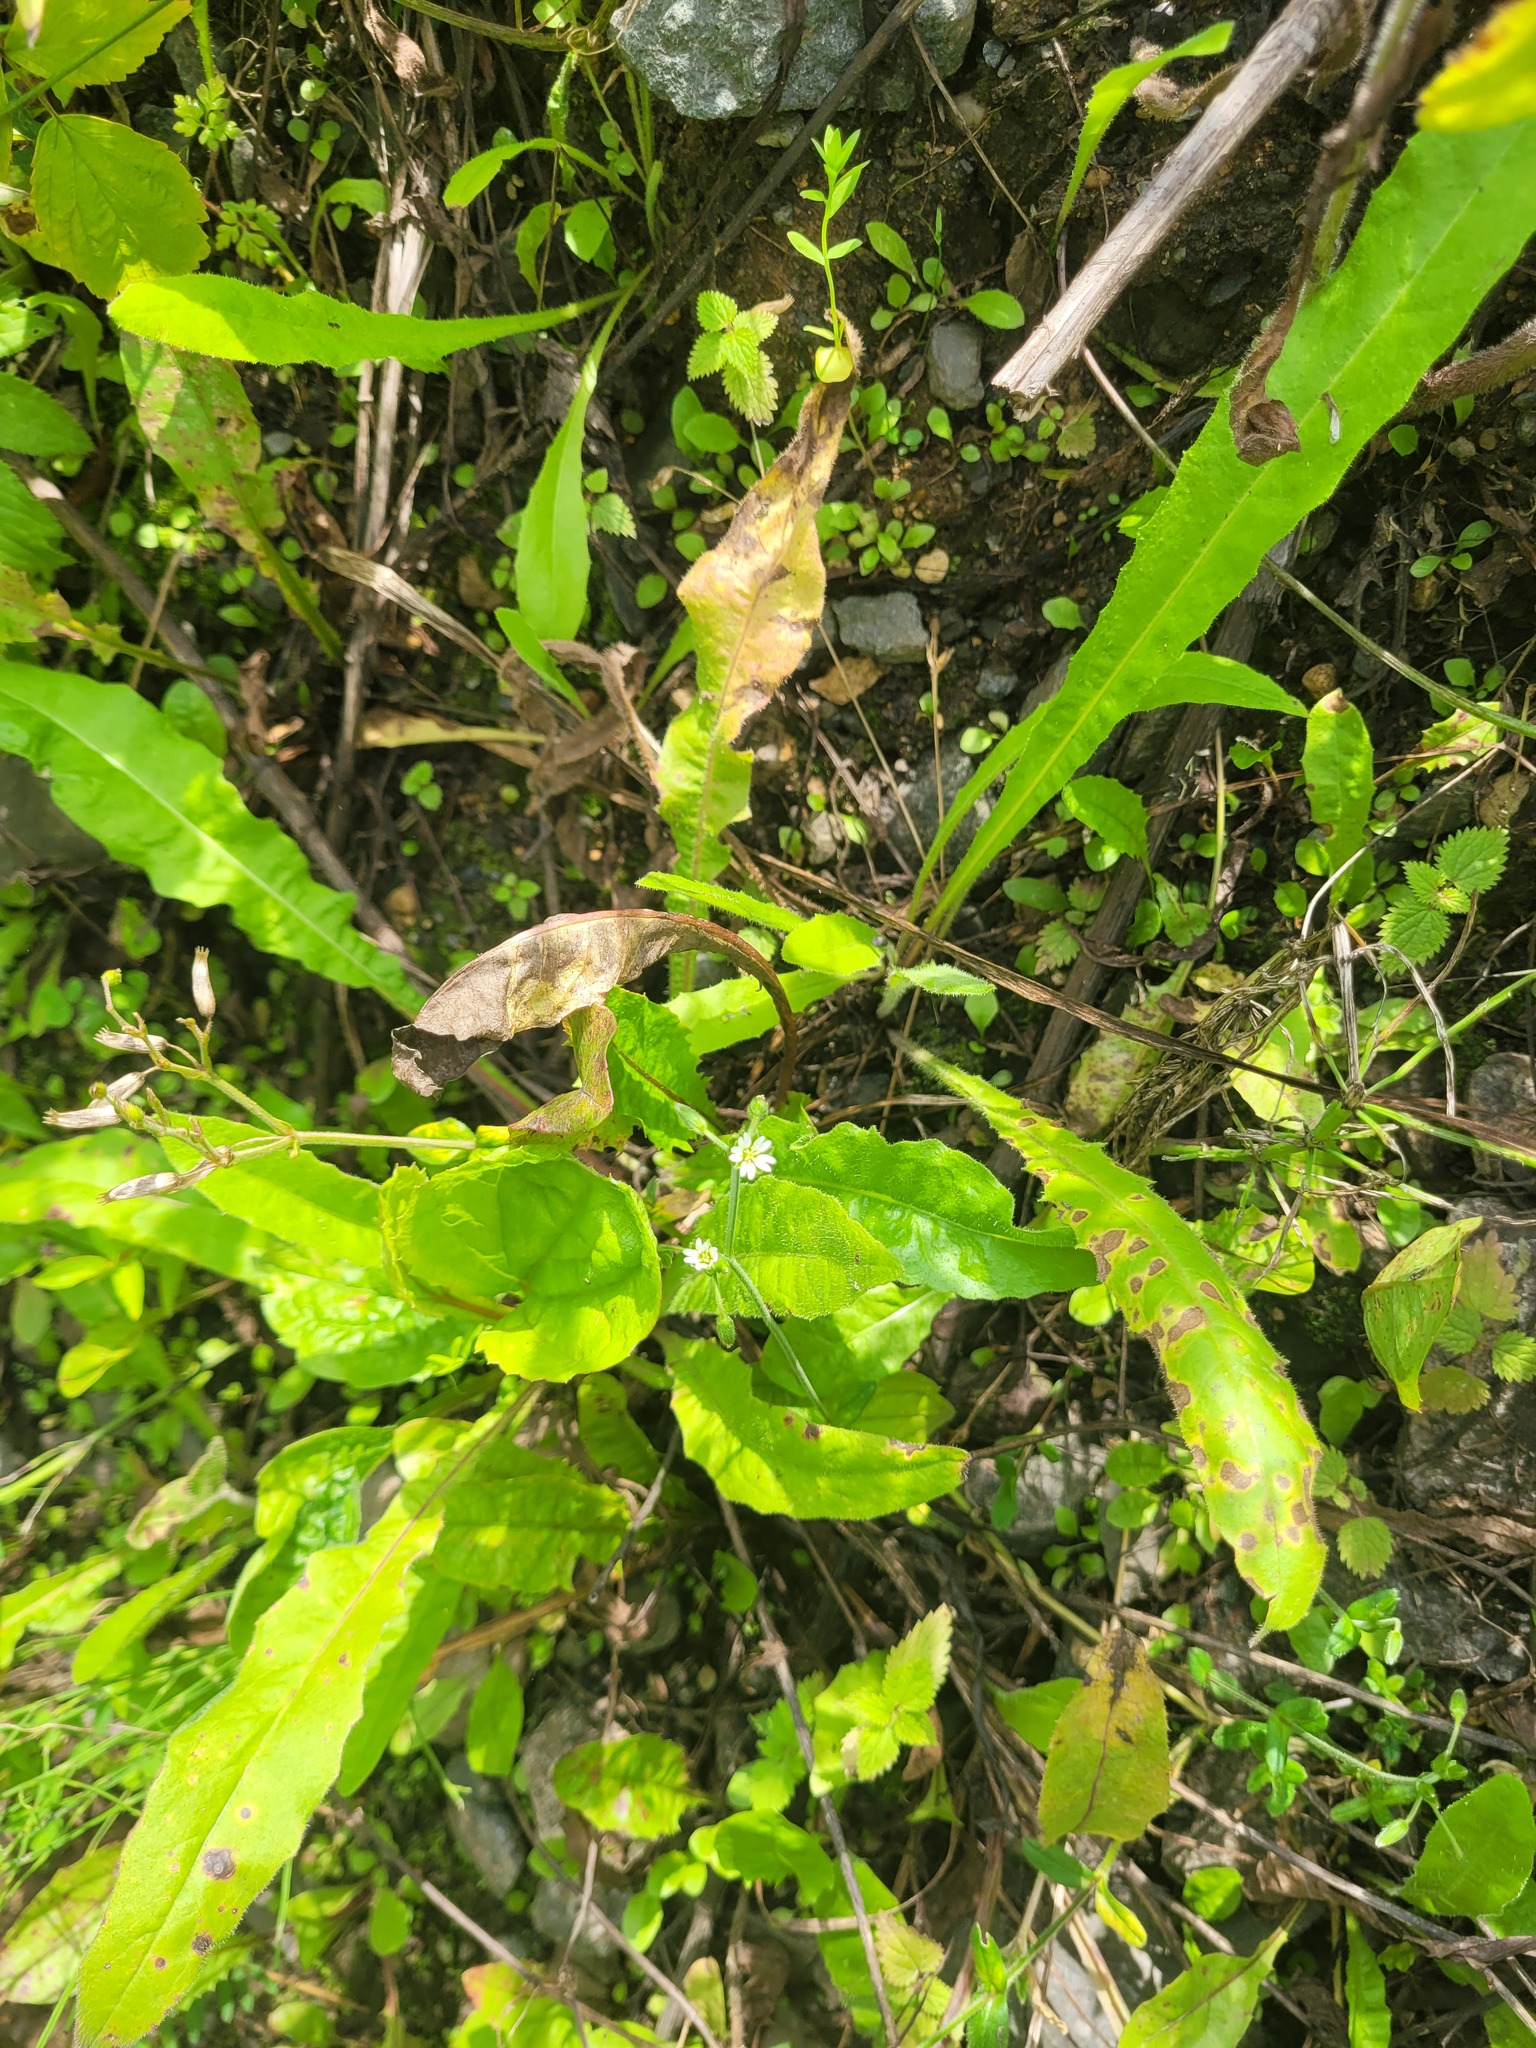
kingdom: Plantae
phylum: Tracheophyta
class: Magnoliopsida
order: Caryophyllales
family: Caryophyllaceae
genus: Cerastium
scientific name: Cerastium holosteoides
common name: Big chickweed
